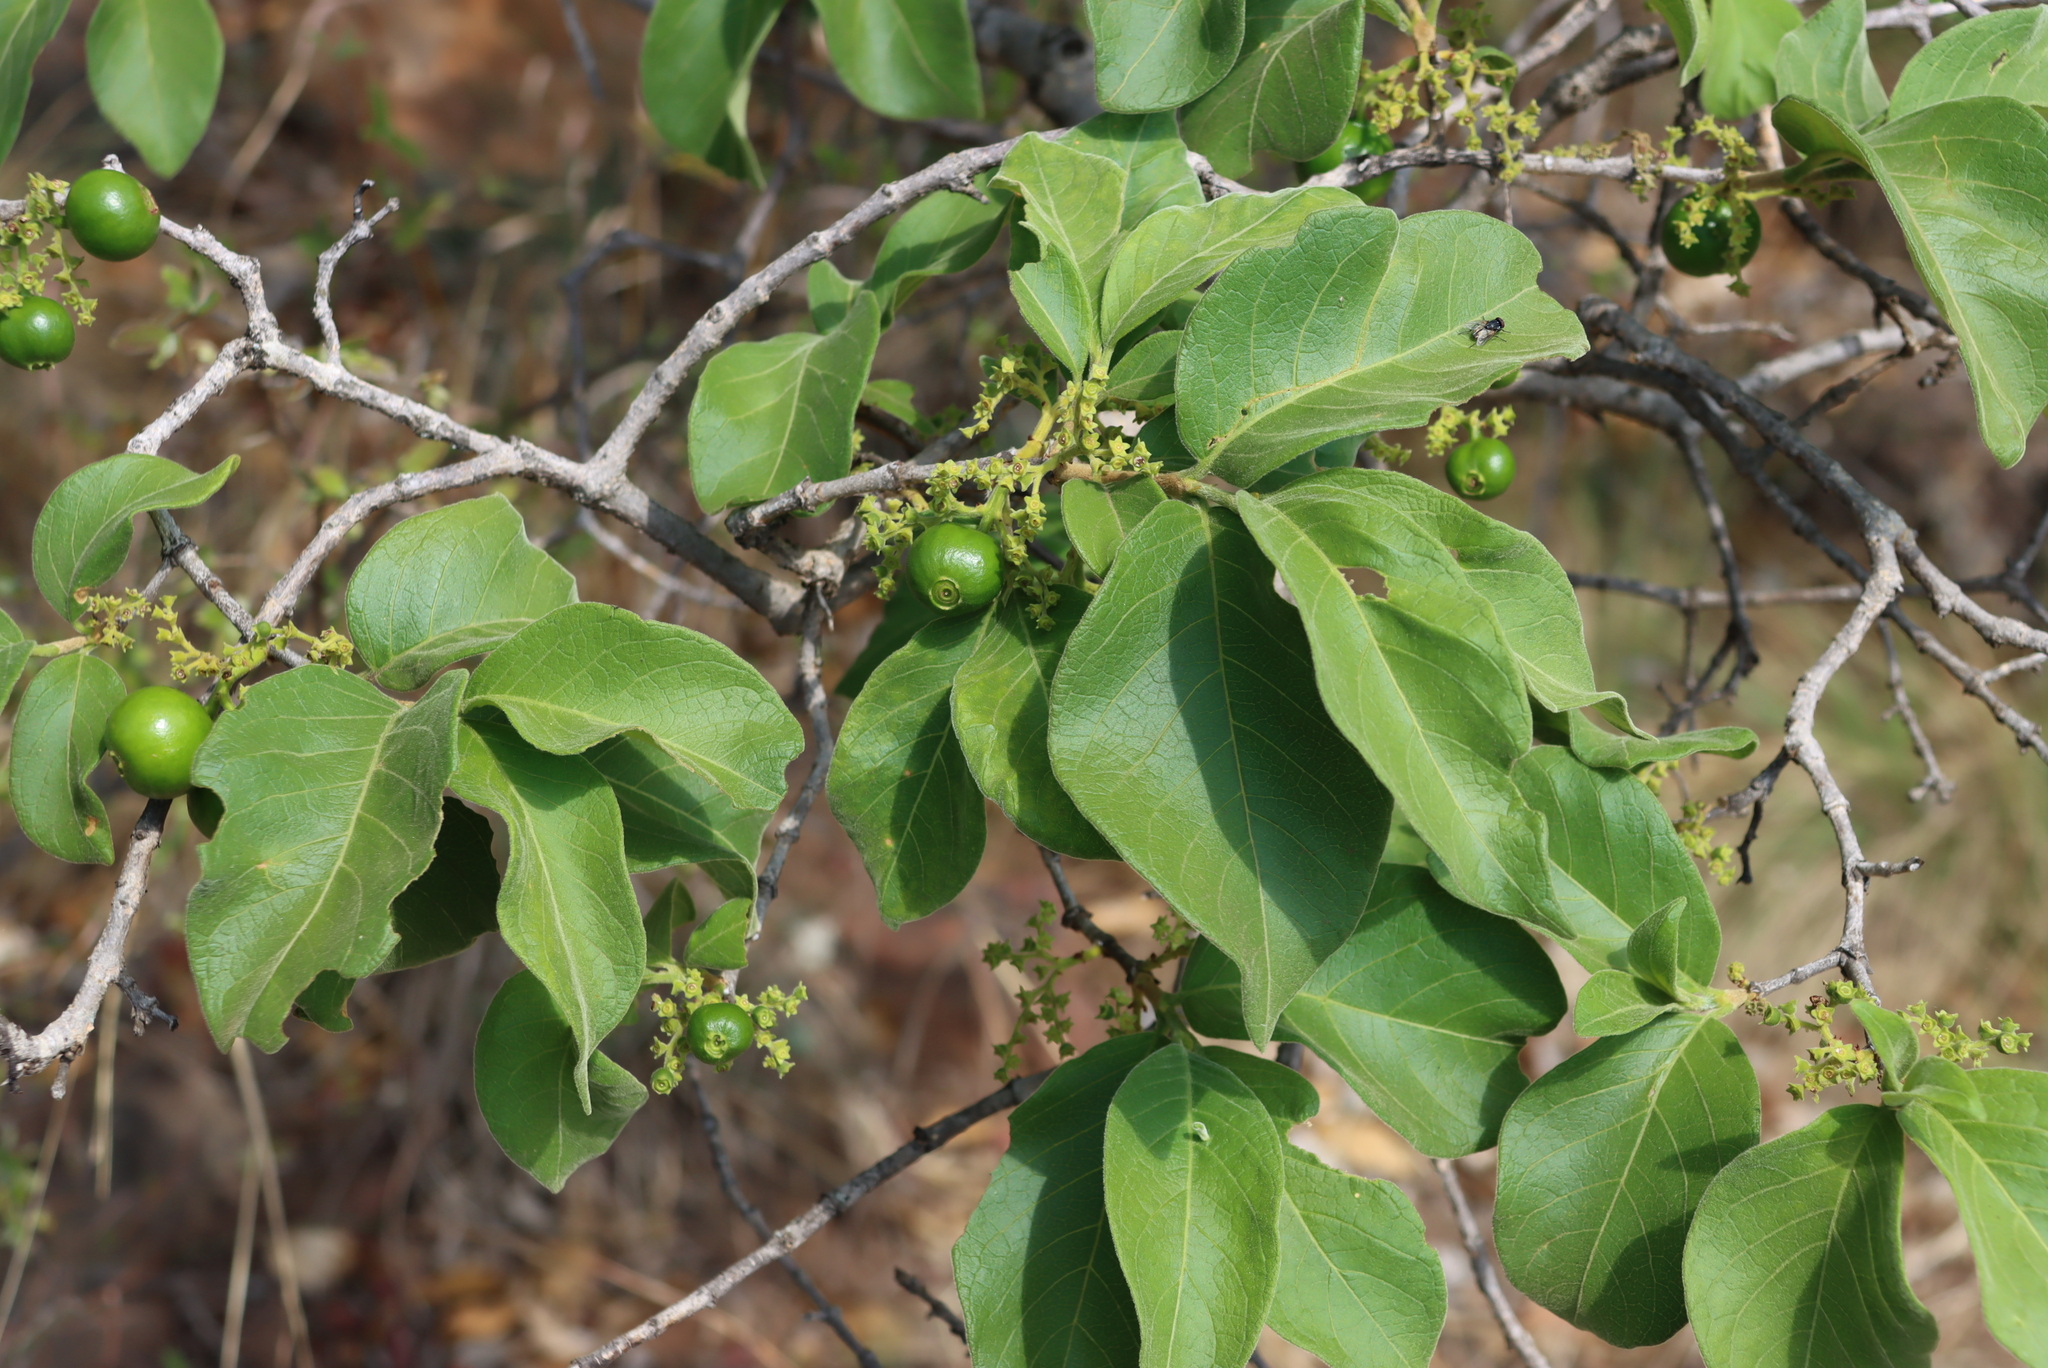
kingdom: Plantae
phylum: Tracheophyta
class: Magnoliopsida
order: Gentianales
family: Rubiaceae
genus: Vangueria
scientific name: Vangueria infausta
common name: Medlar
